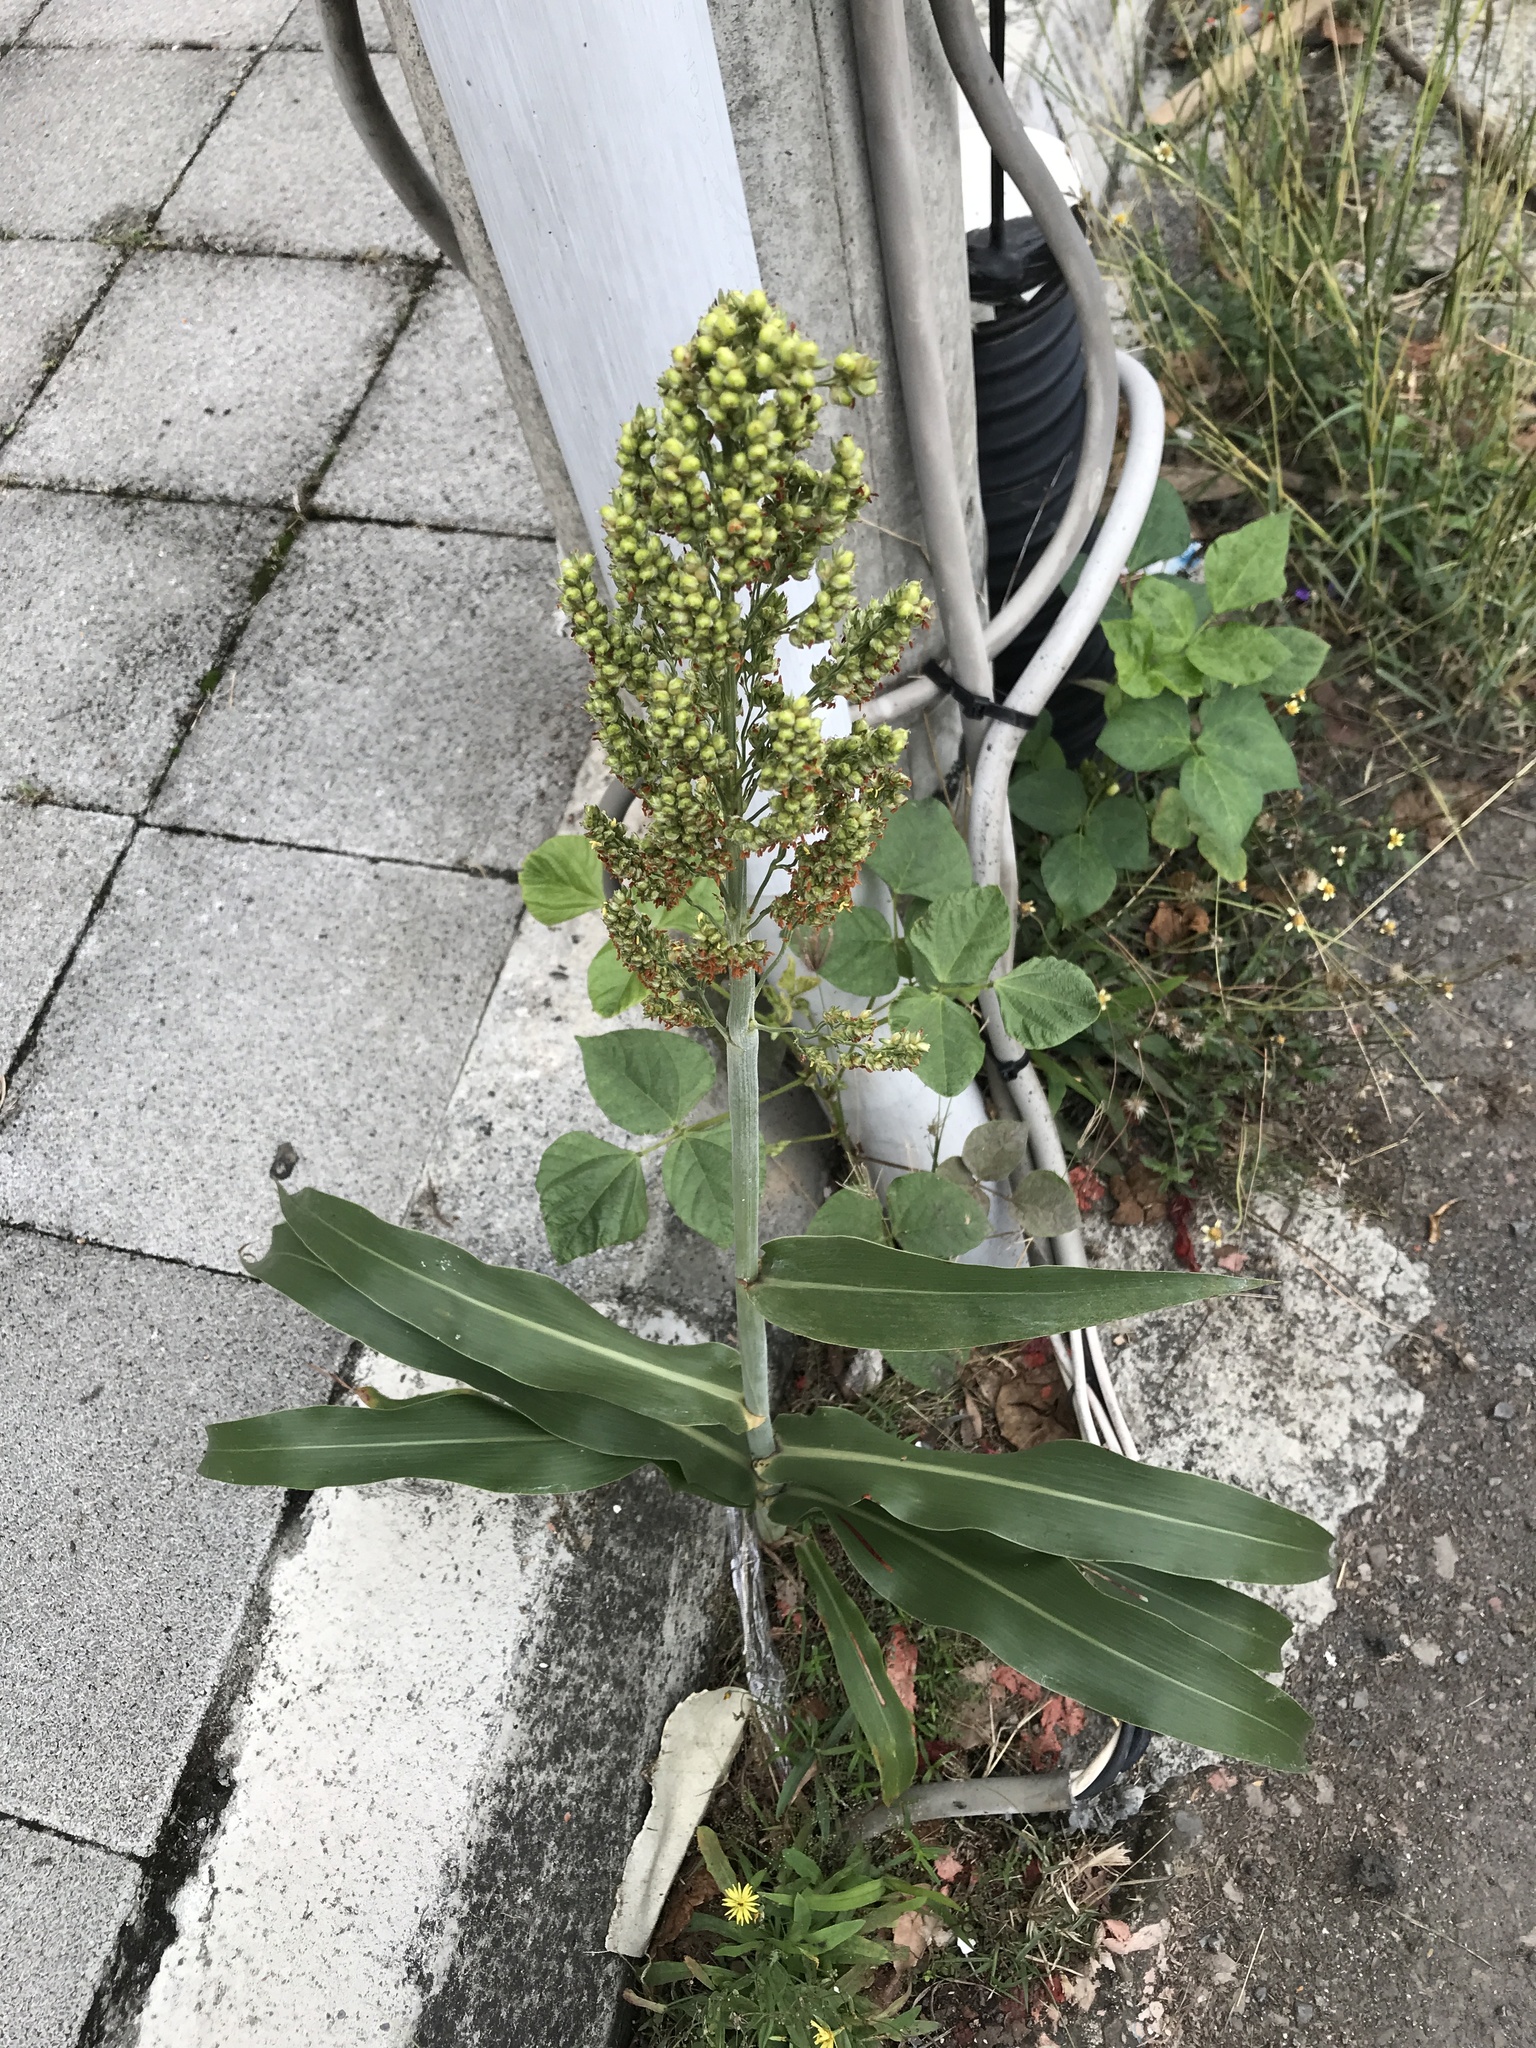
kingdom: Plantae
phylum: Tracheophyta
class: Liliopsida
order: Poales
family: Poaceae
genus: Sorghum
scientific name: Sorghum bicolor
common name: Sorghum
